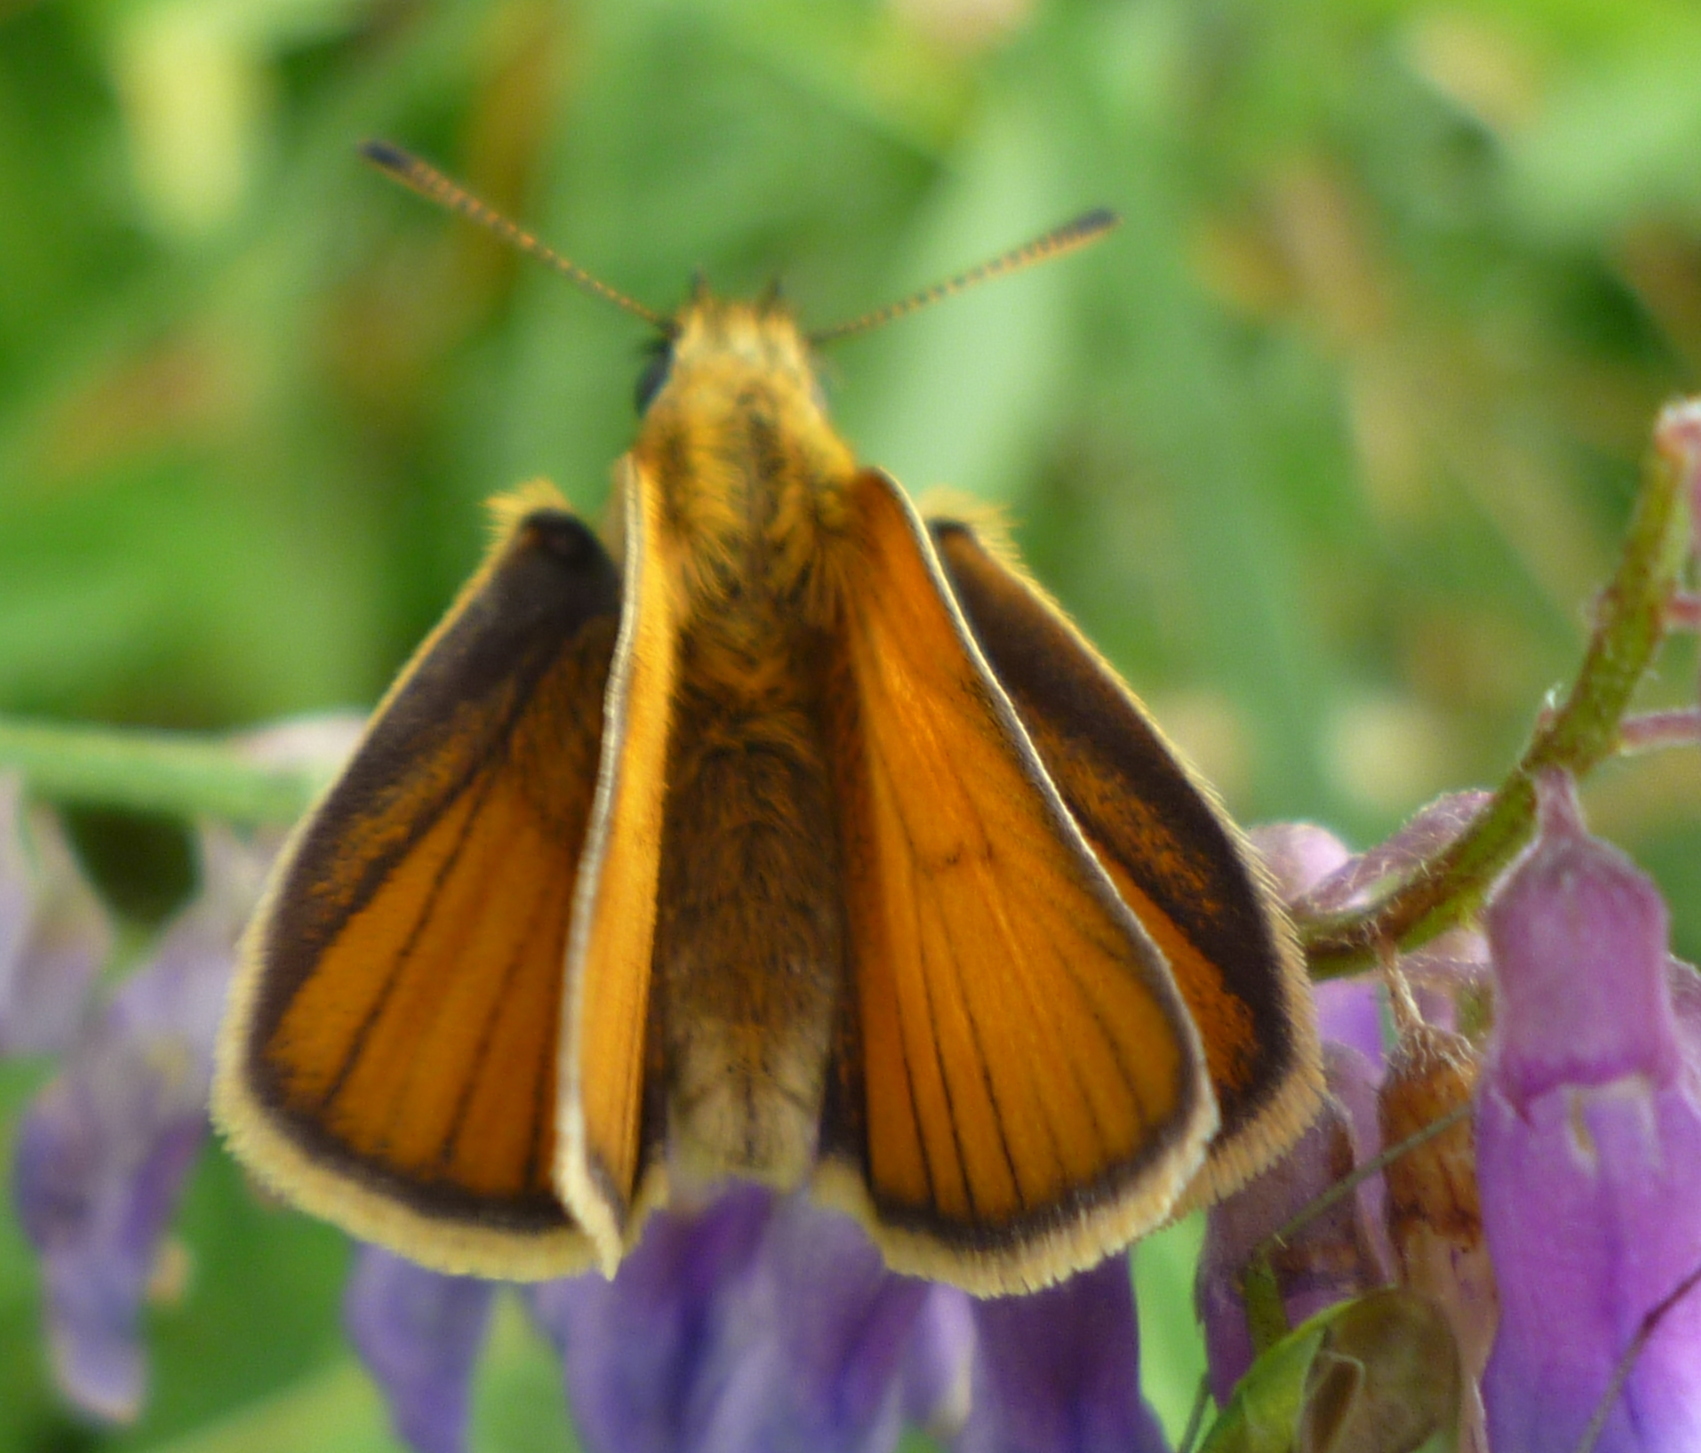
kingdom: Animalia
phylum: Arthropoda
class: Insecta
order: Lepidoptera
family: Hesperiidae
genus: Thymelicus
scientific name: Thymelicus lineola
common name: Essex skipper
